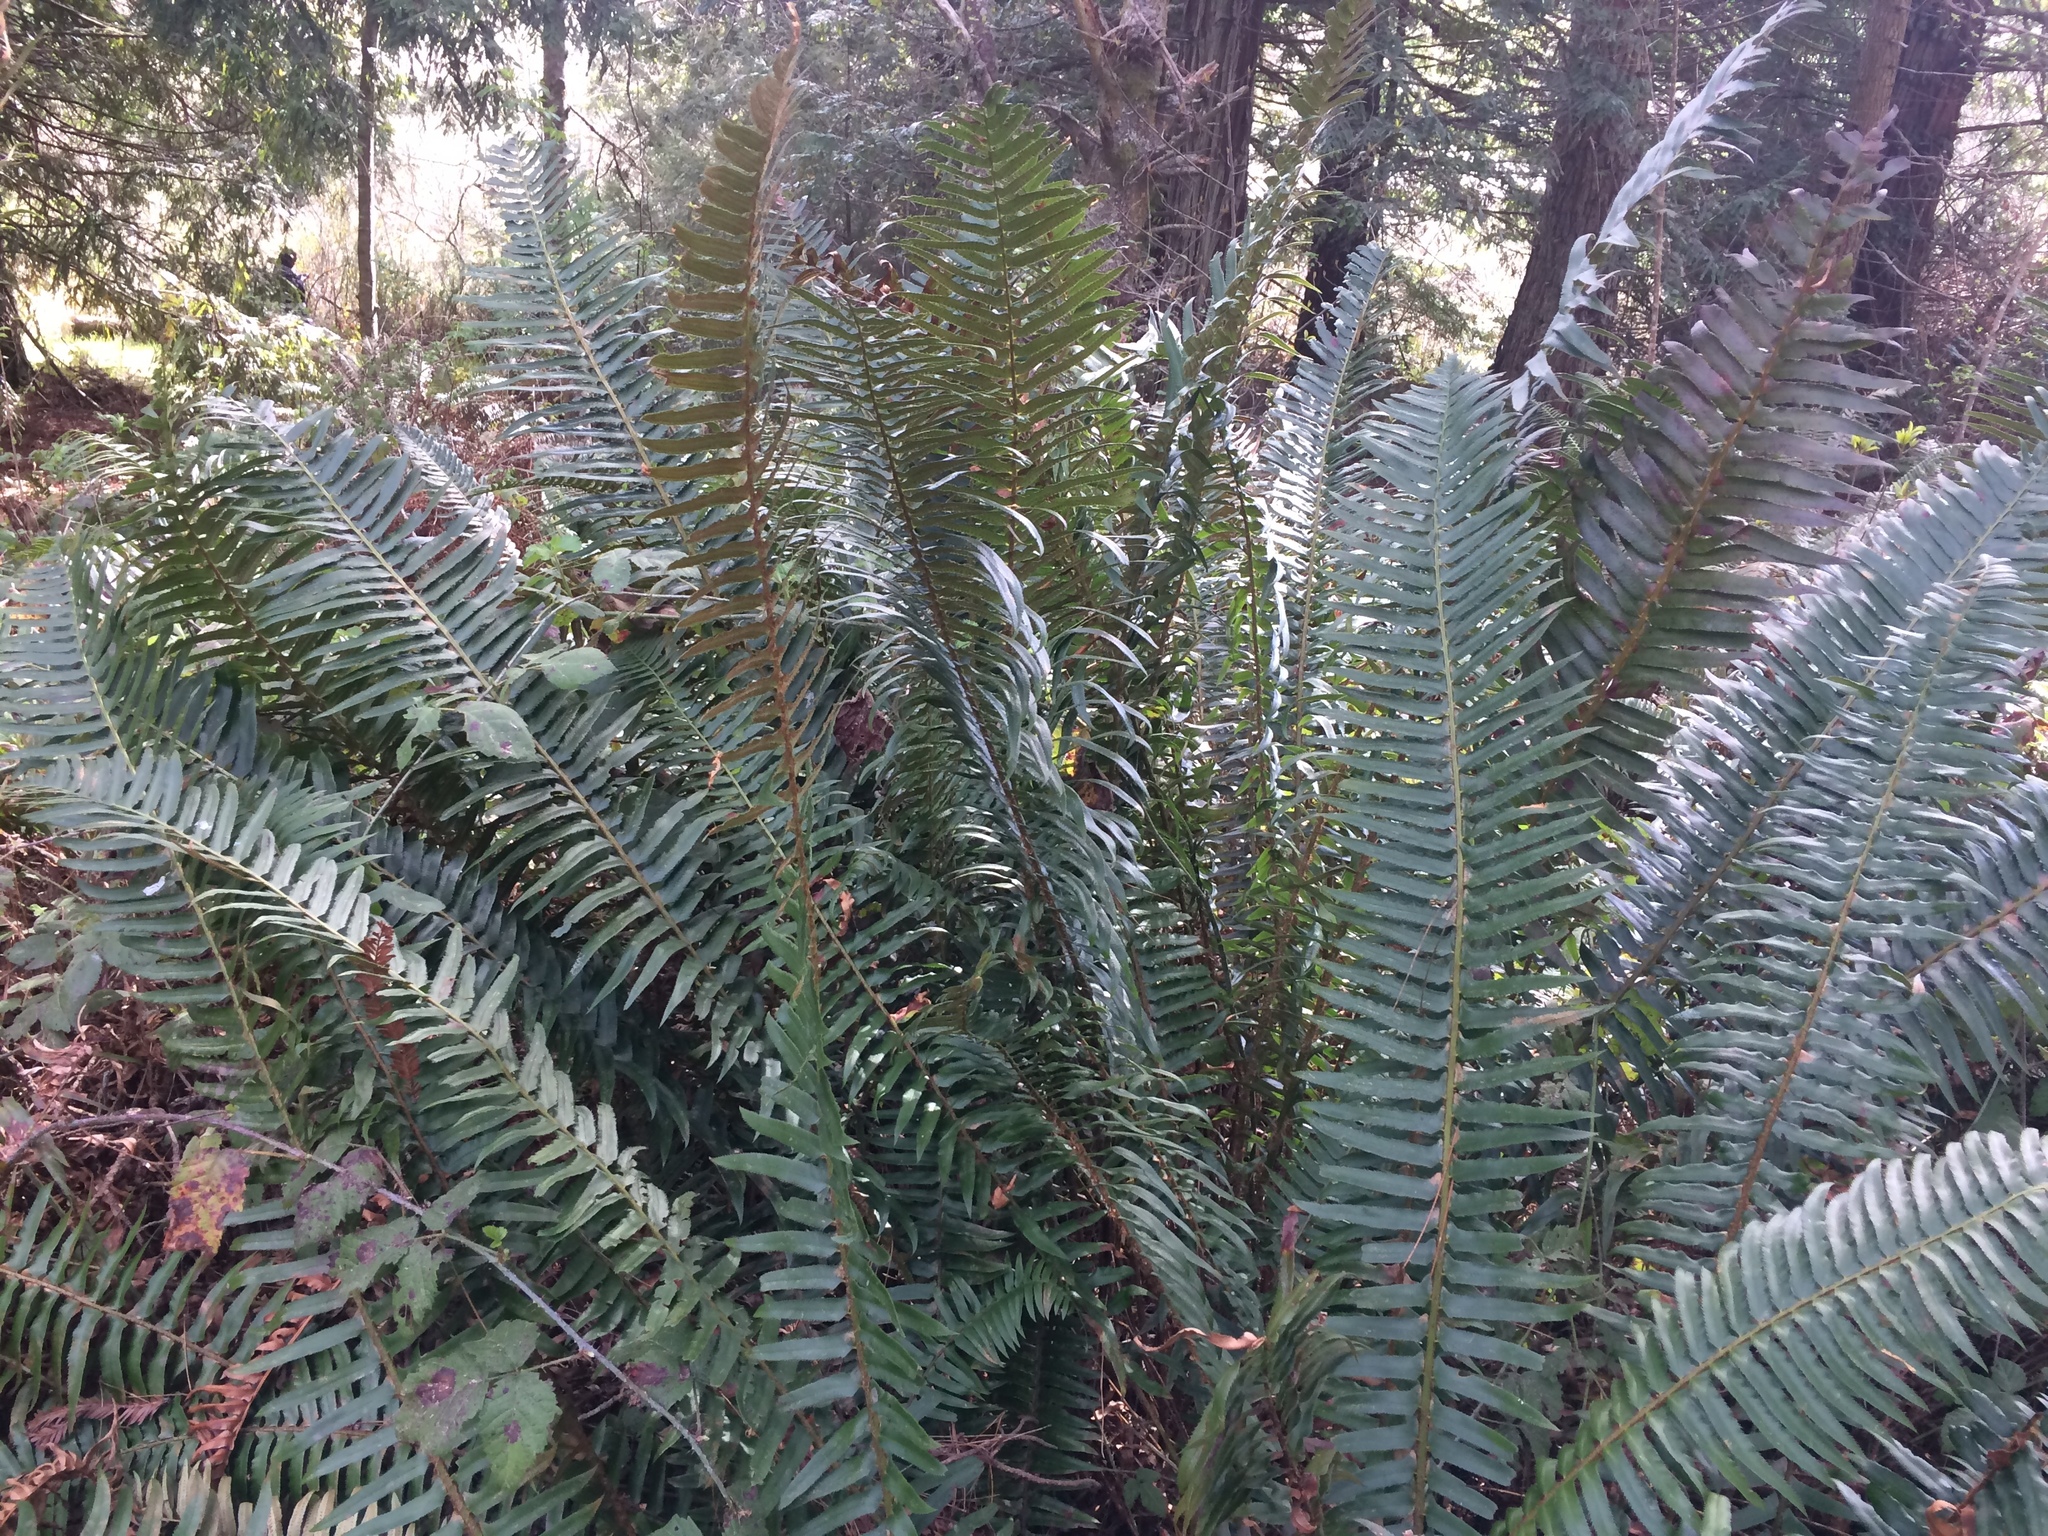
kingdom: Plantae
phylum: Tracheophyta
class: Polypodiopsida
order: Polypodiales
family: Dryopteridaceae
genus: Polystichum
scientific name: Polystichum munitum
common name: Western sword-fern
